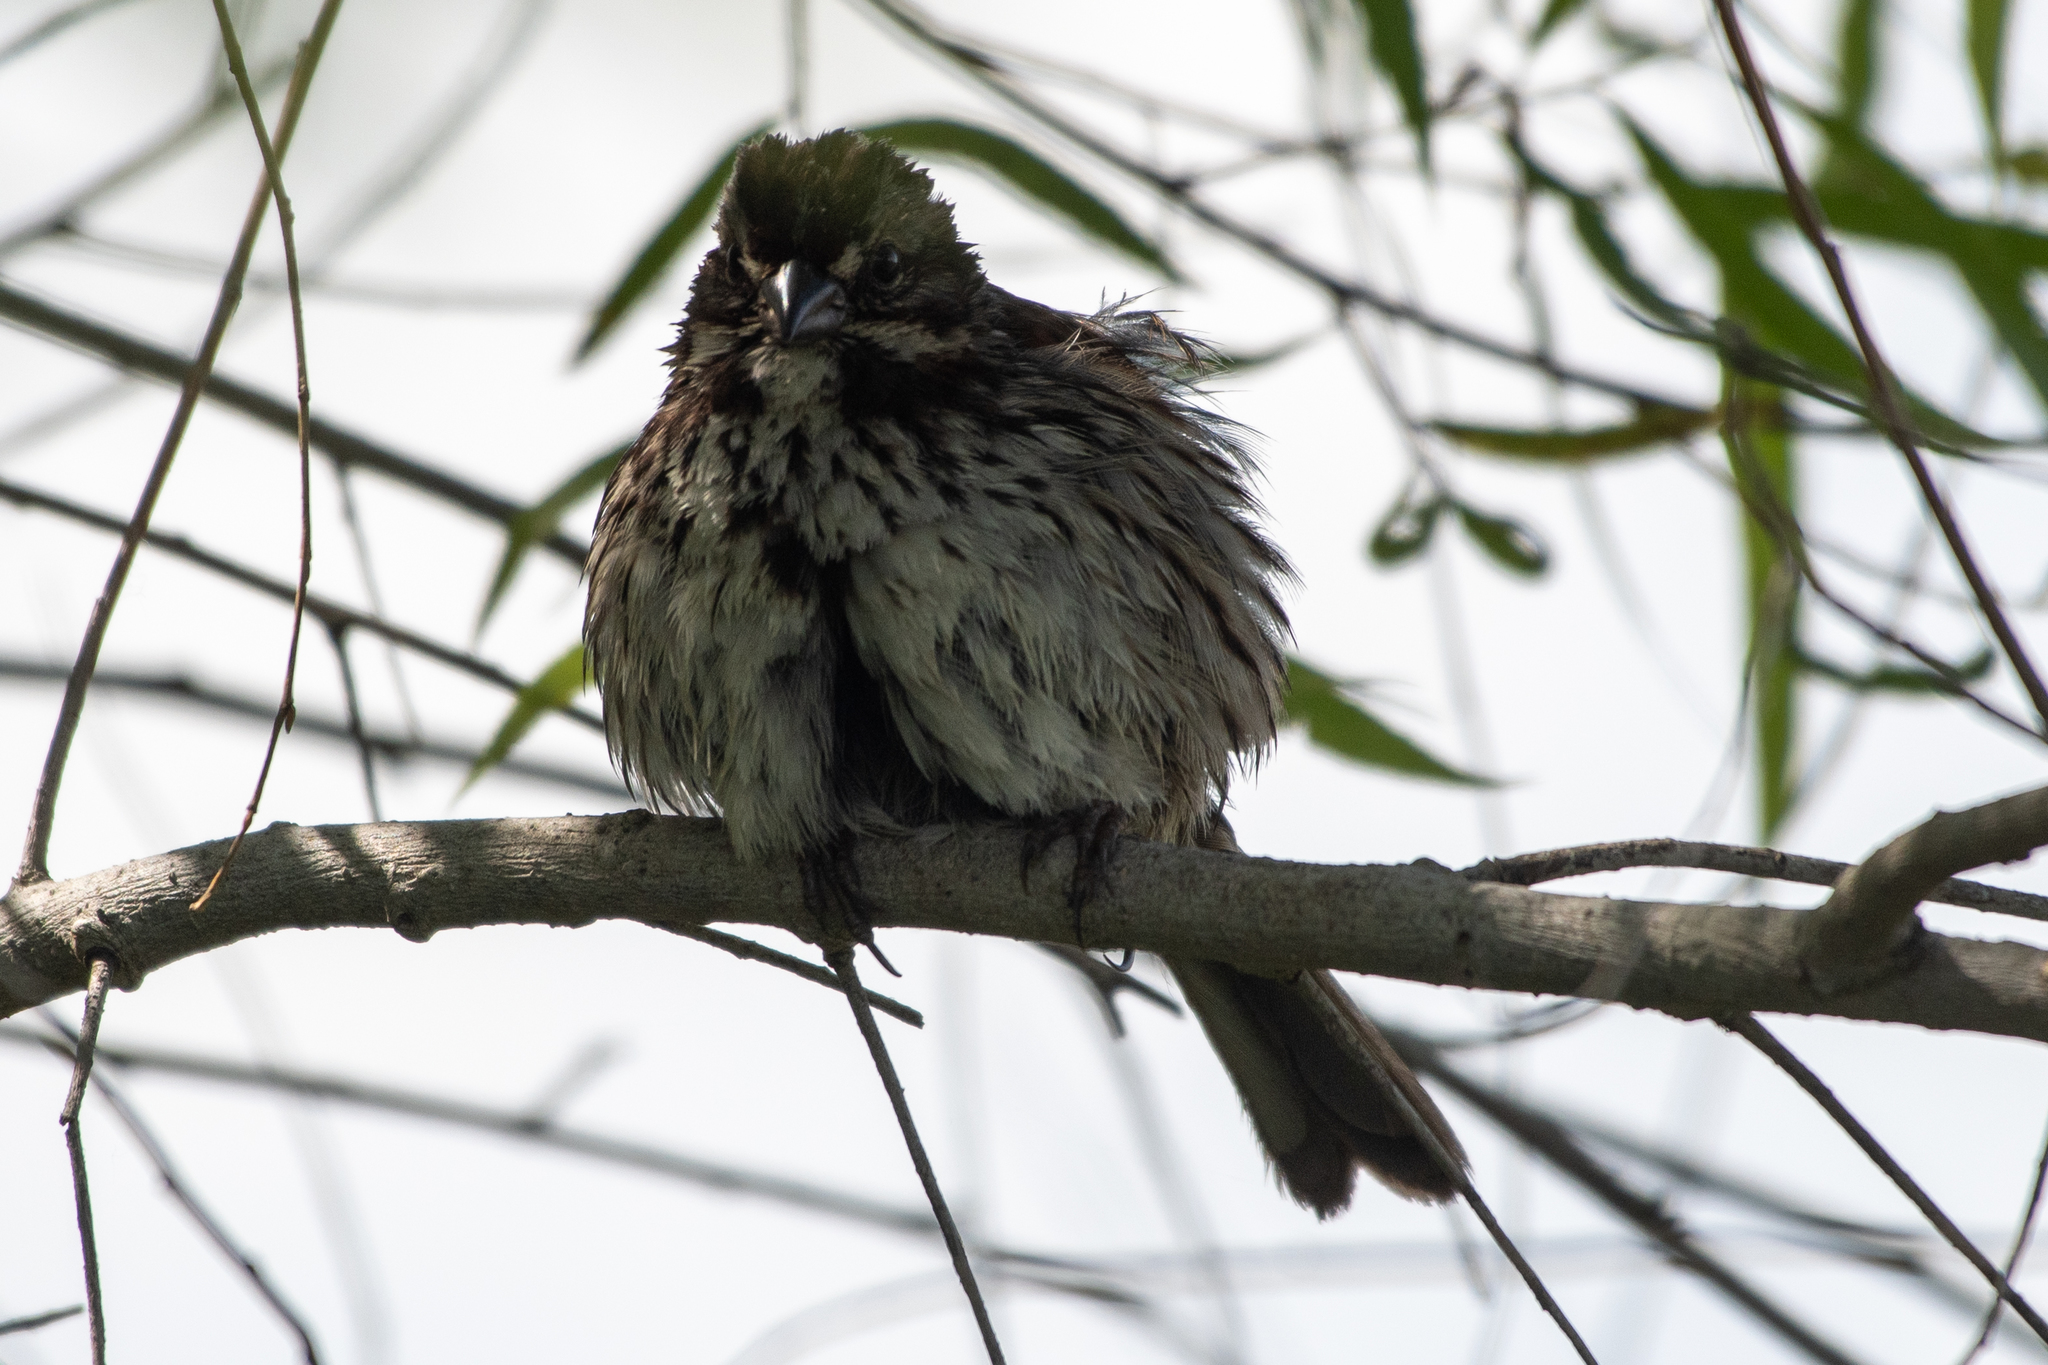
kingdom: Animalia
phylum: Chordata
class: Aves
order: Passeriformes
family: Passerellidae
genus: Melospiza
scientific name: Melospiza melodia
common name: Song sparrow
